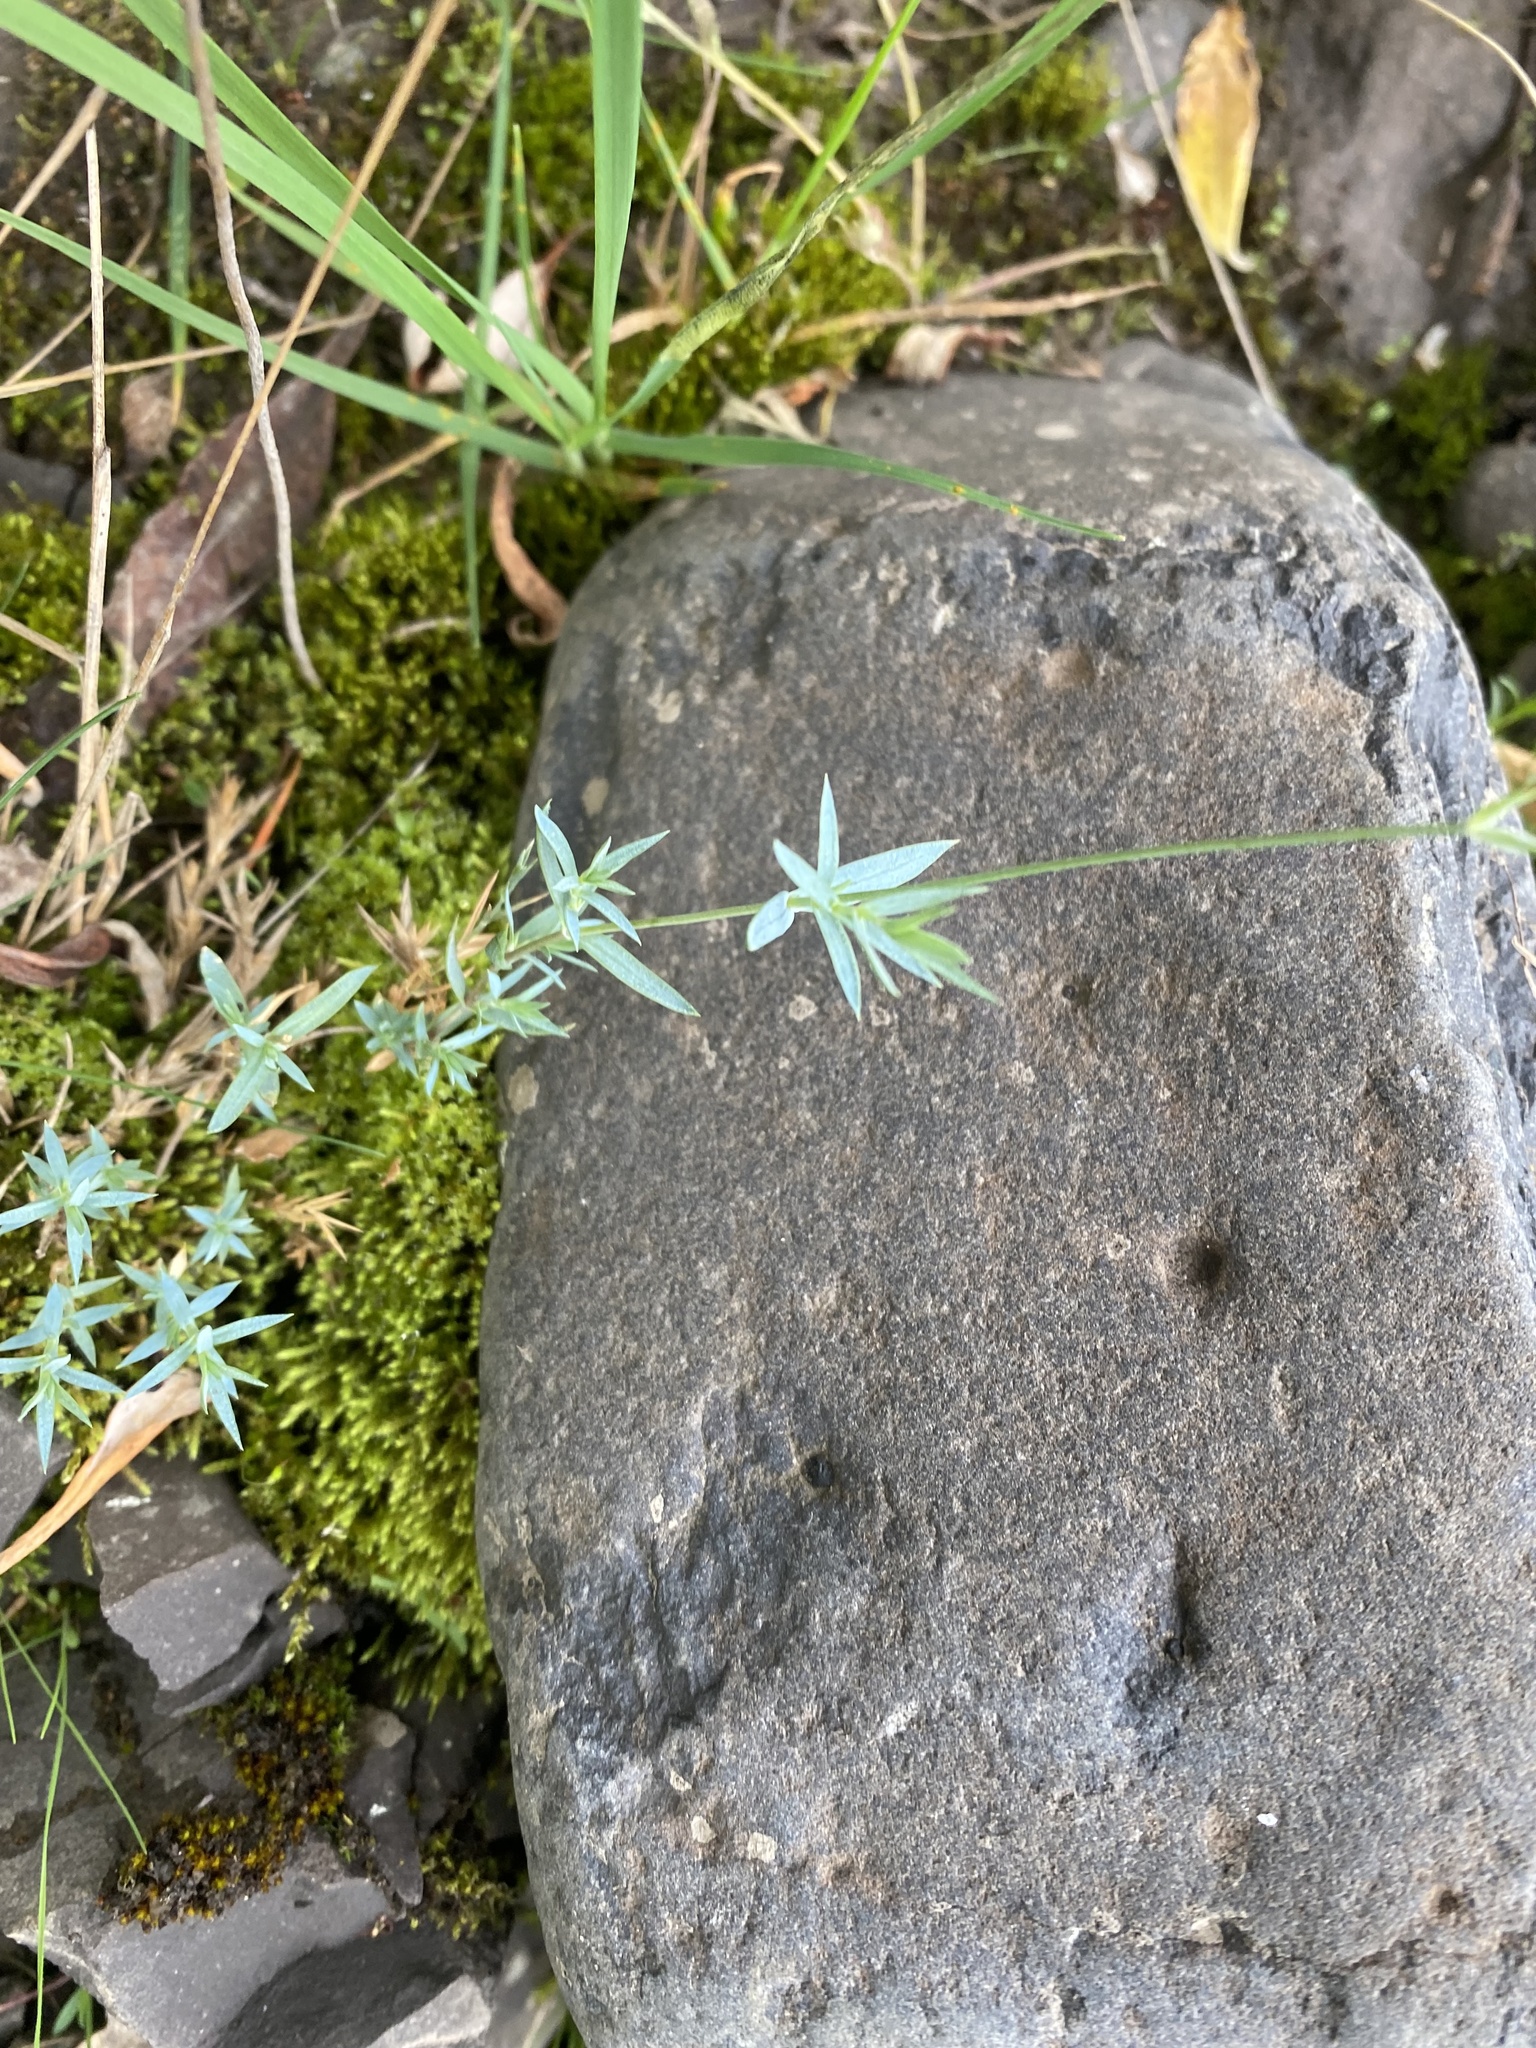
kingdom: Plantae
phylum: Tracheophyta
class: Magnoliopsida
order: Caryophyllales
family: Caryophyllaceae
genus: Stellaria
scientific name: Stellaria fischeriana
